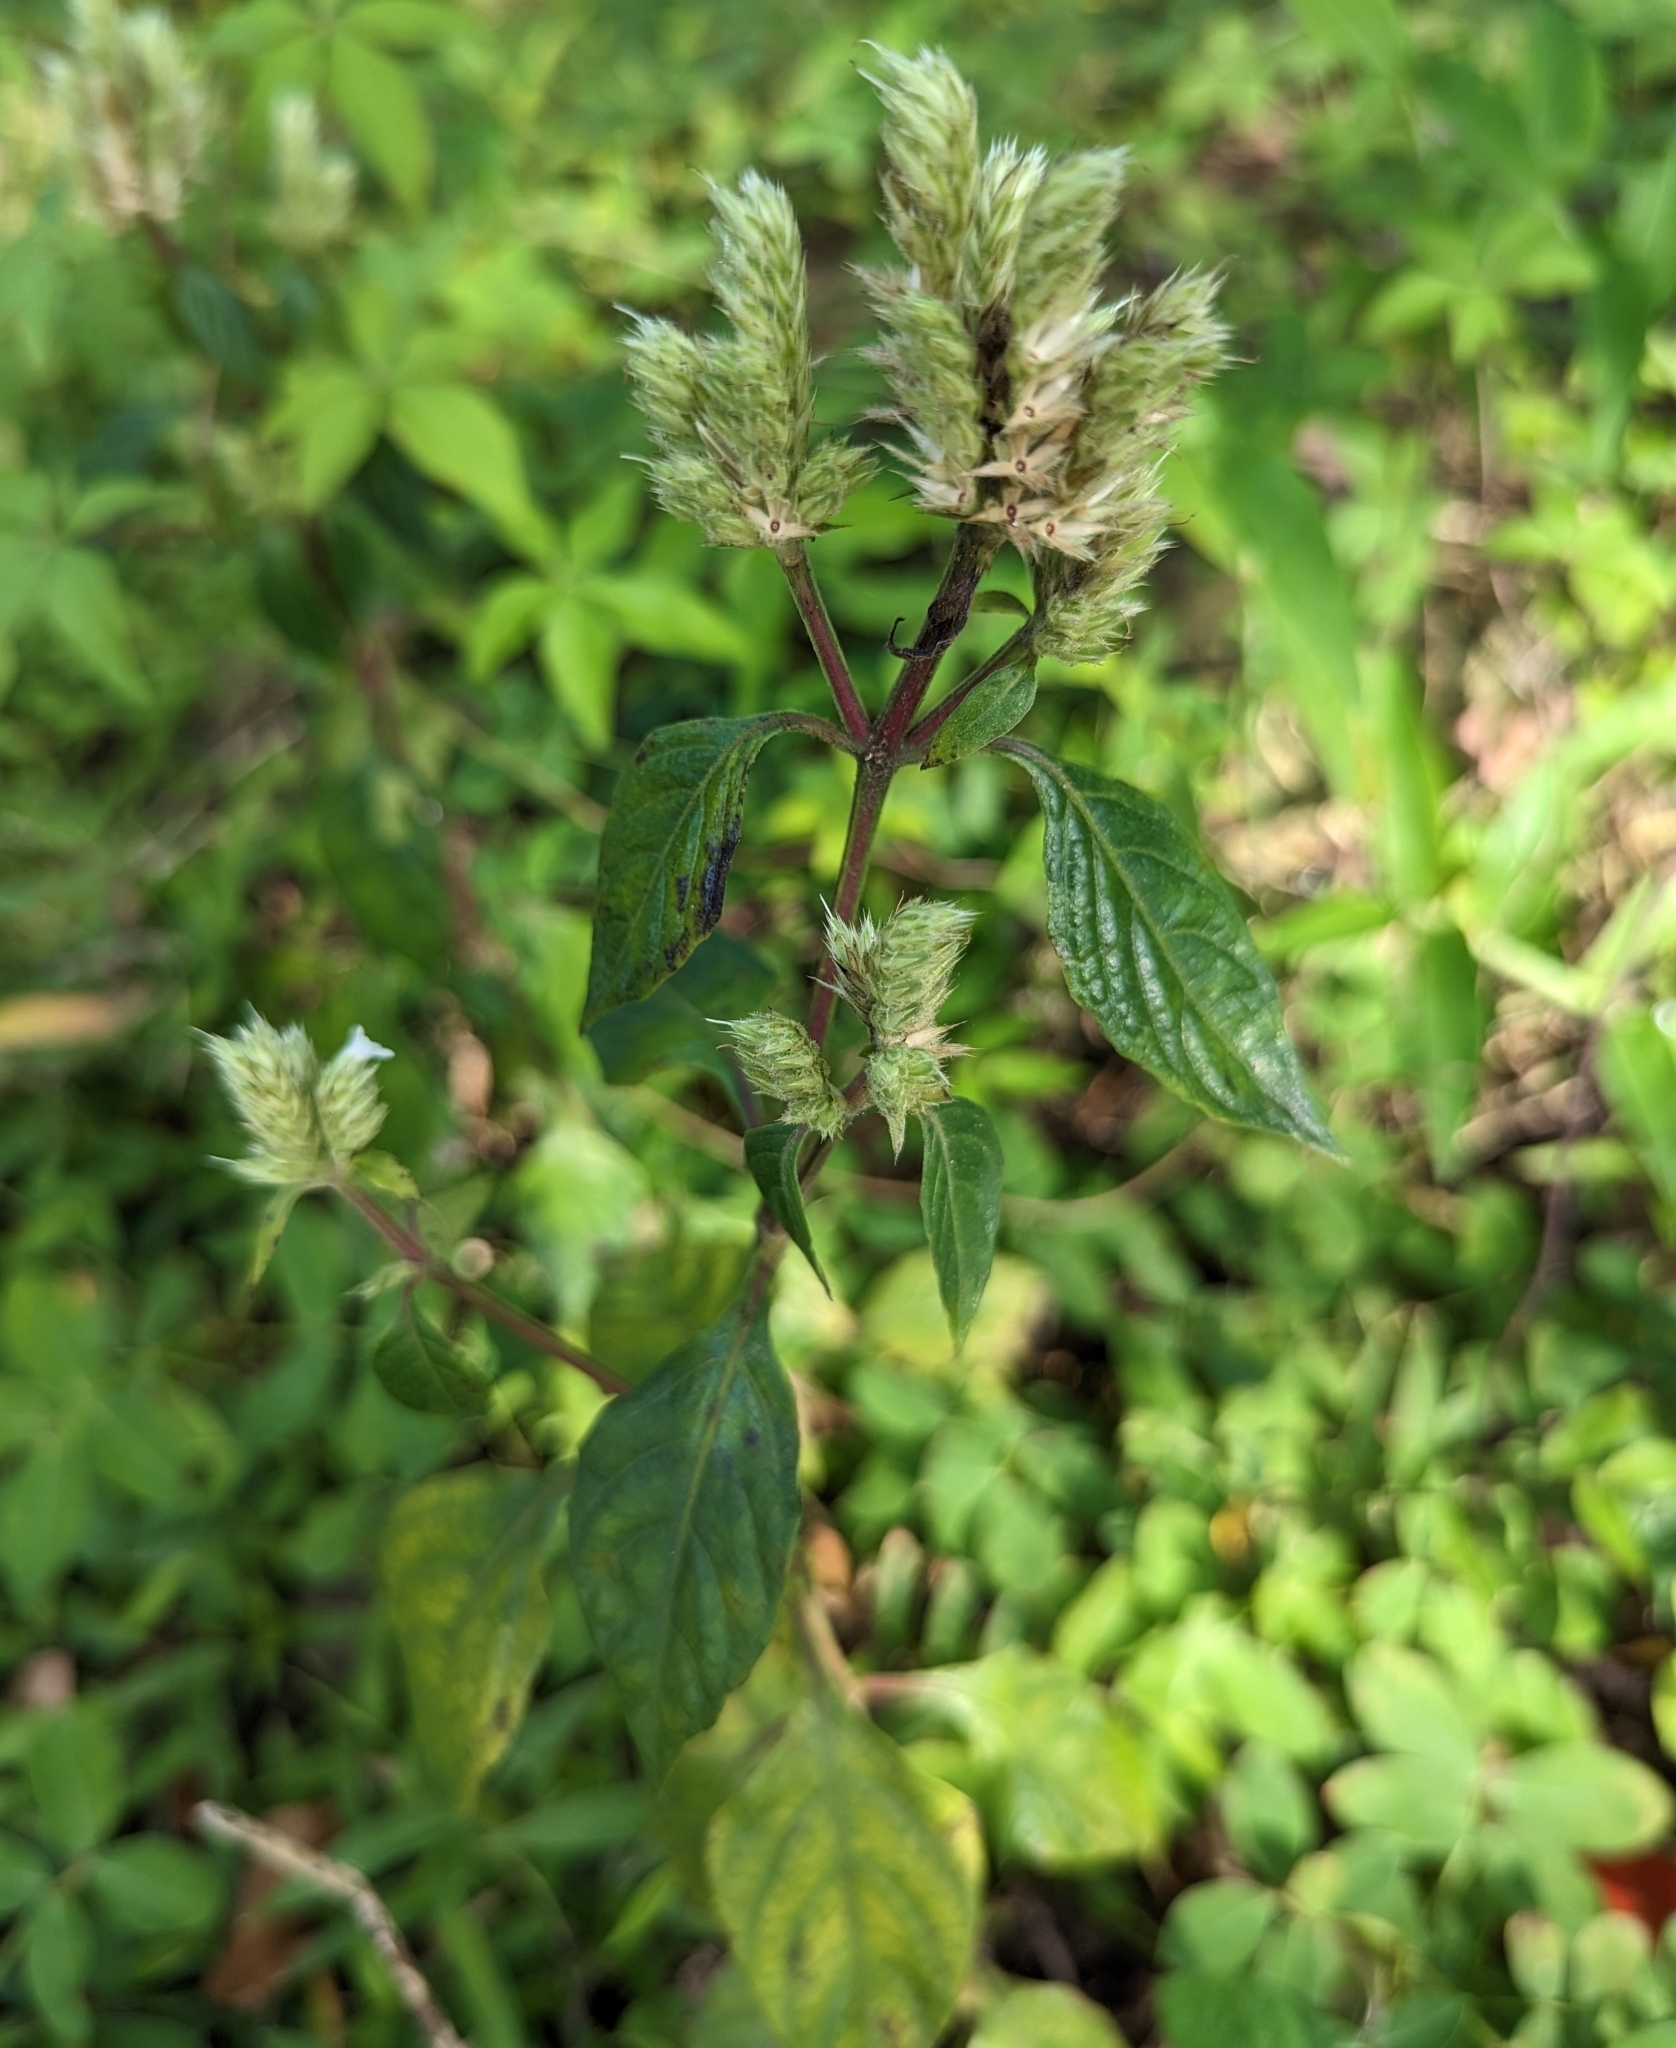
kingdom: Plantae
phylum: Tracheophyta
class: Magnoliopsida
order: Lamiales
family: Acanthaceae
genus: Lepidagathis
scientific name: Lepidagathis formosensis
